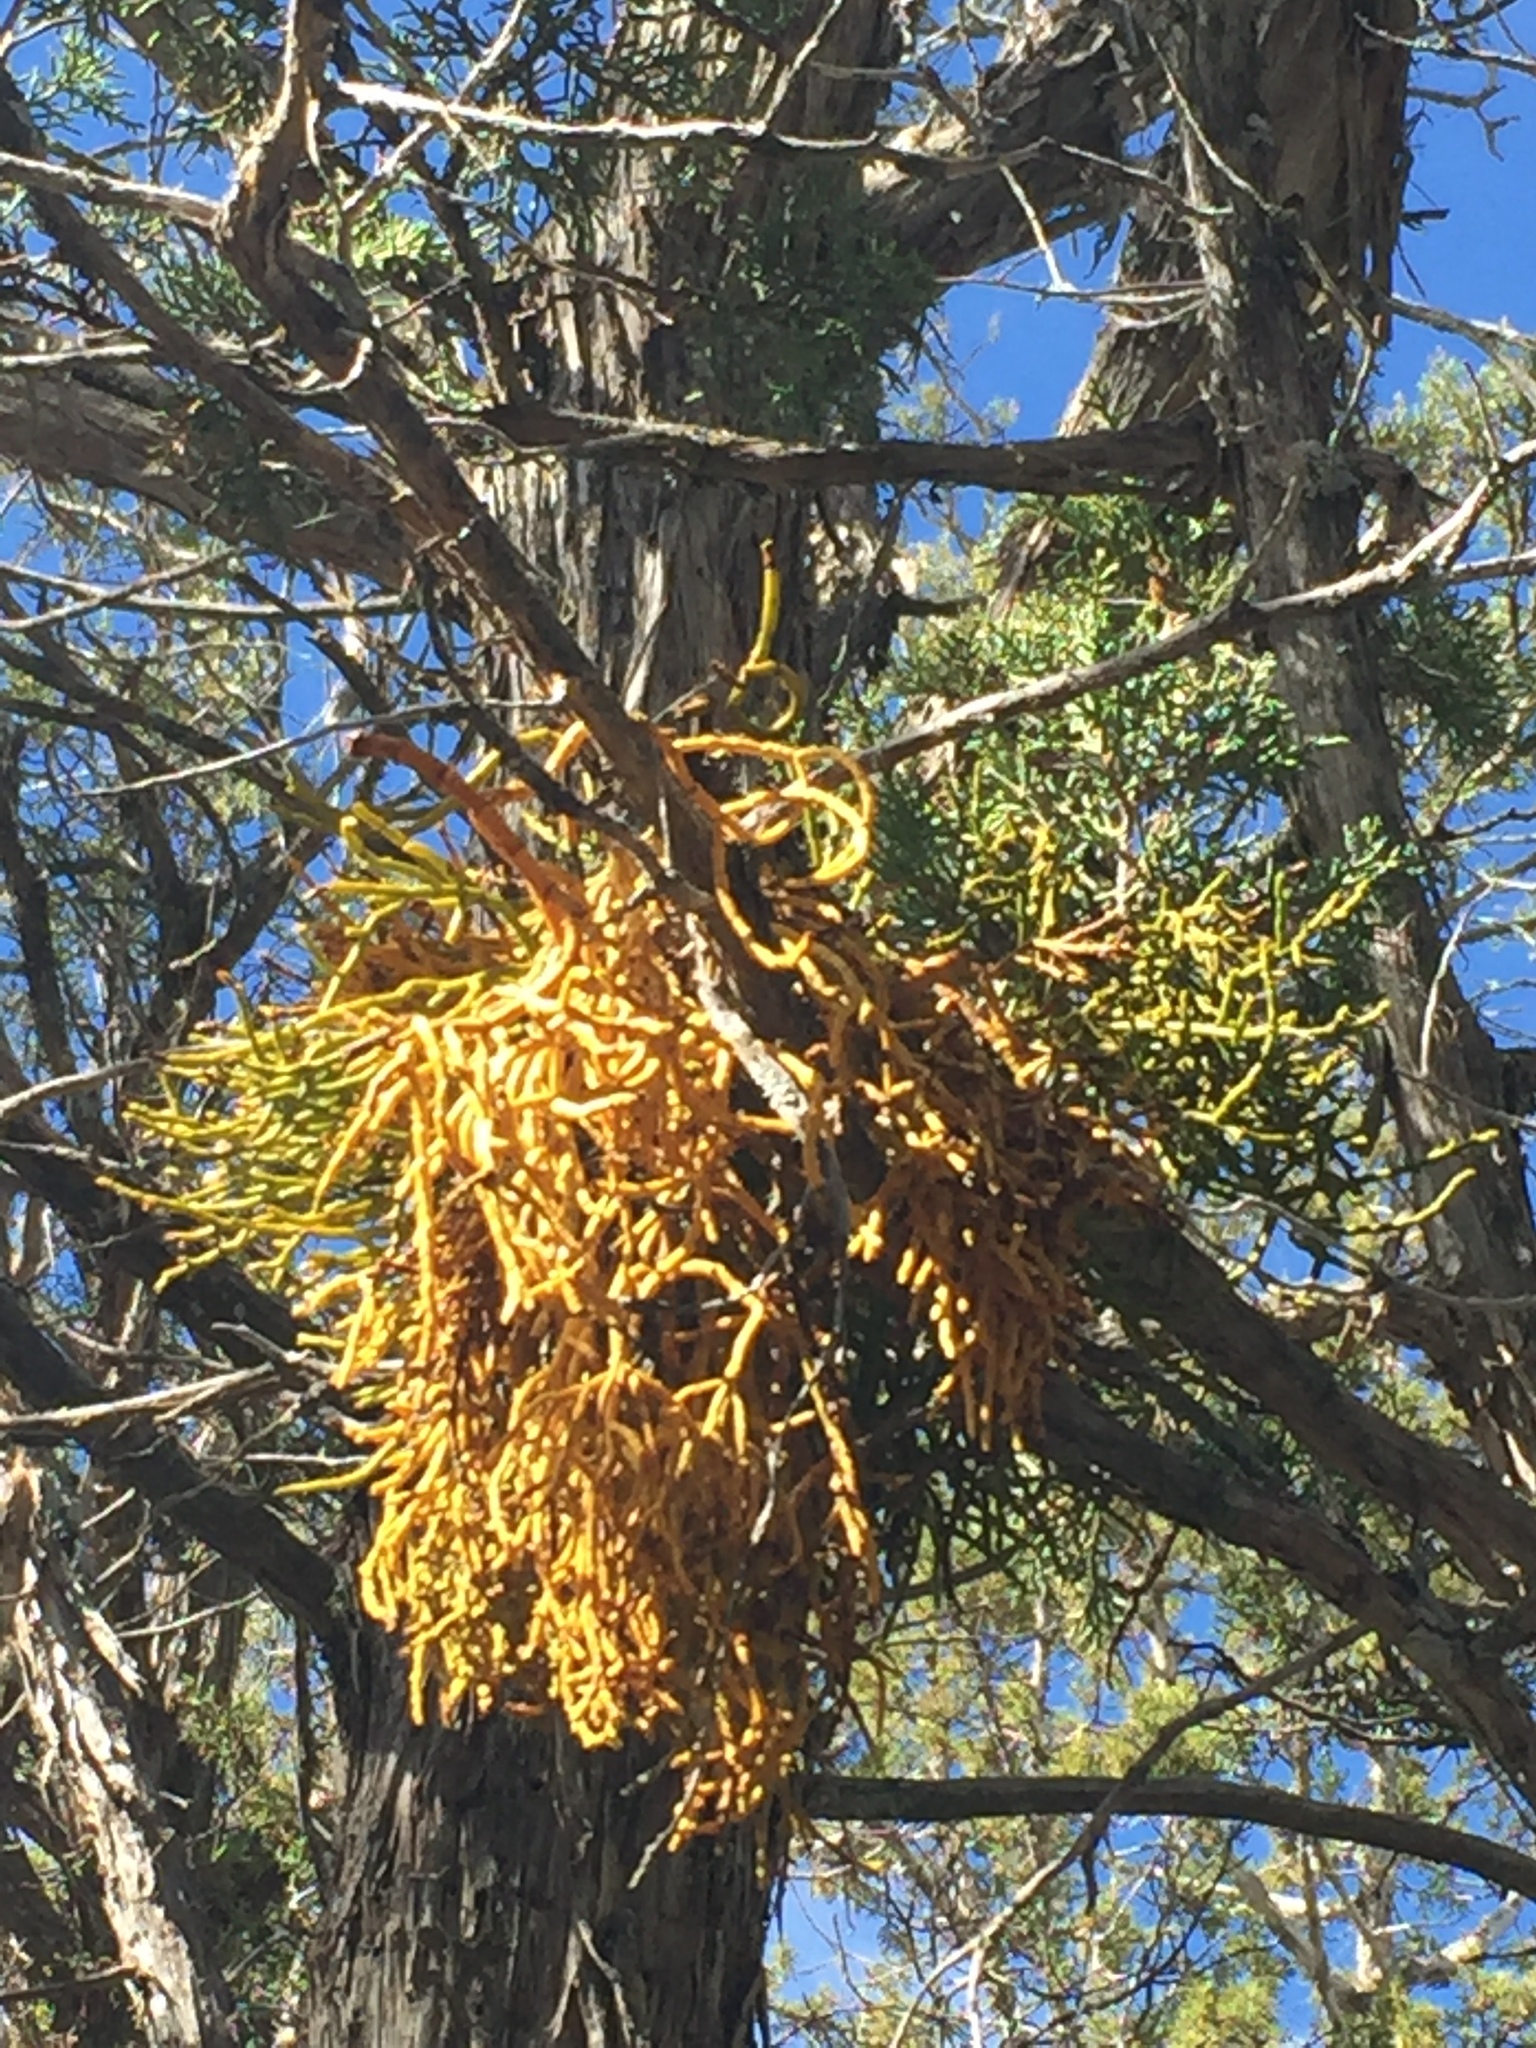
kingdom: Plantae
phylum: Tracheophyta
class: Magnoliopsida
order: Santalales
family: Viscaceae
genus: Phoradendron
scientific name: Phoradendron juniperinum
